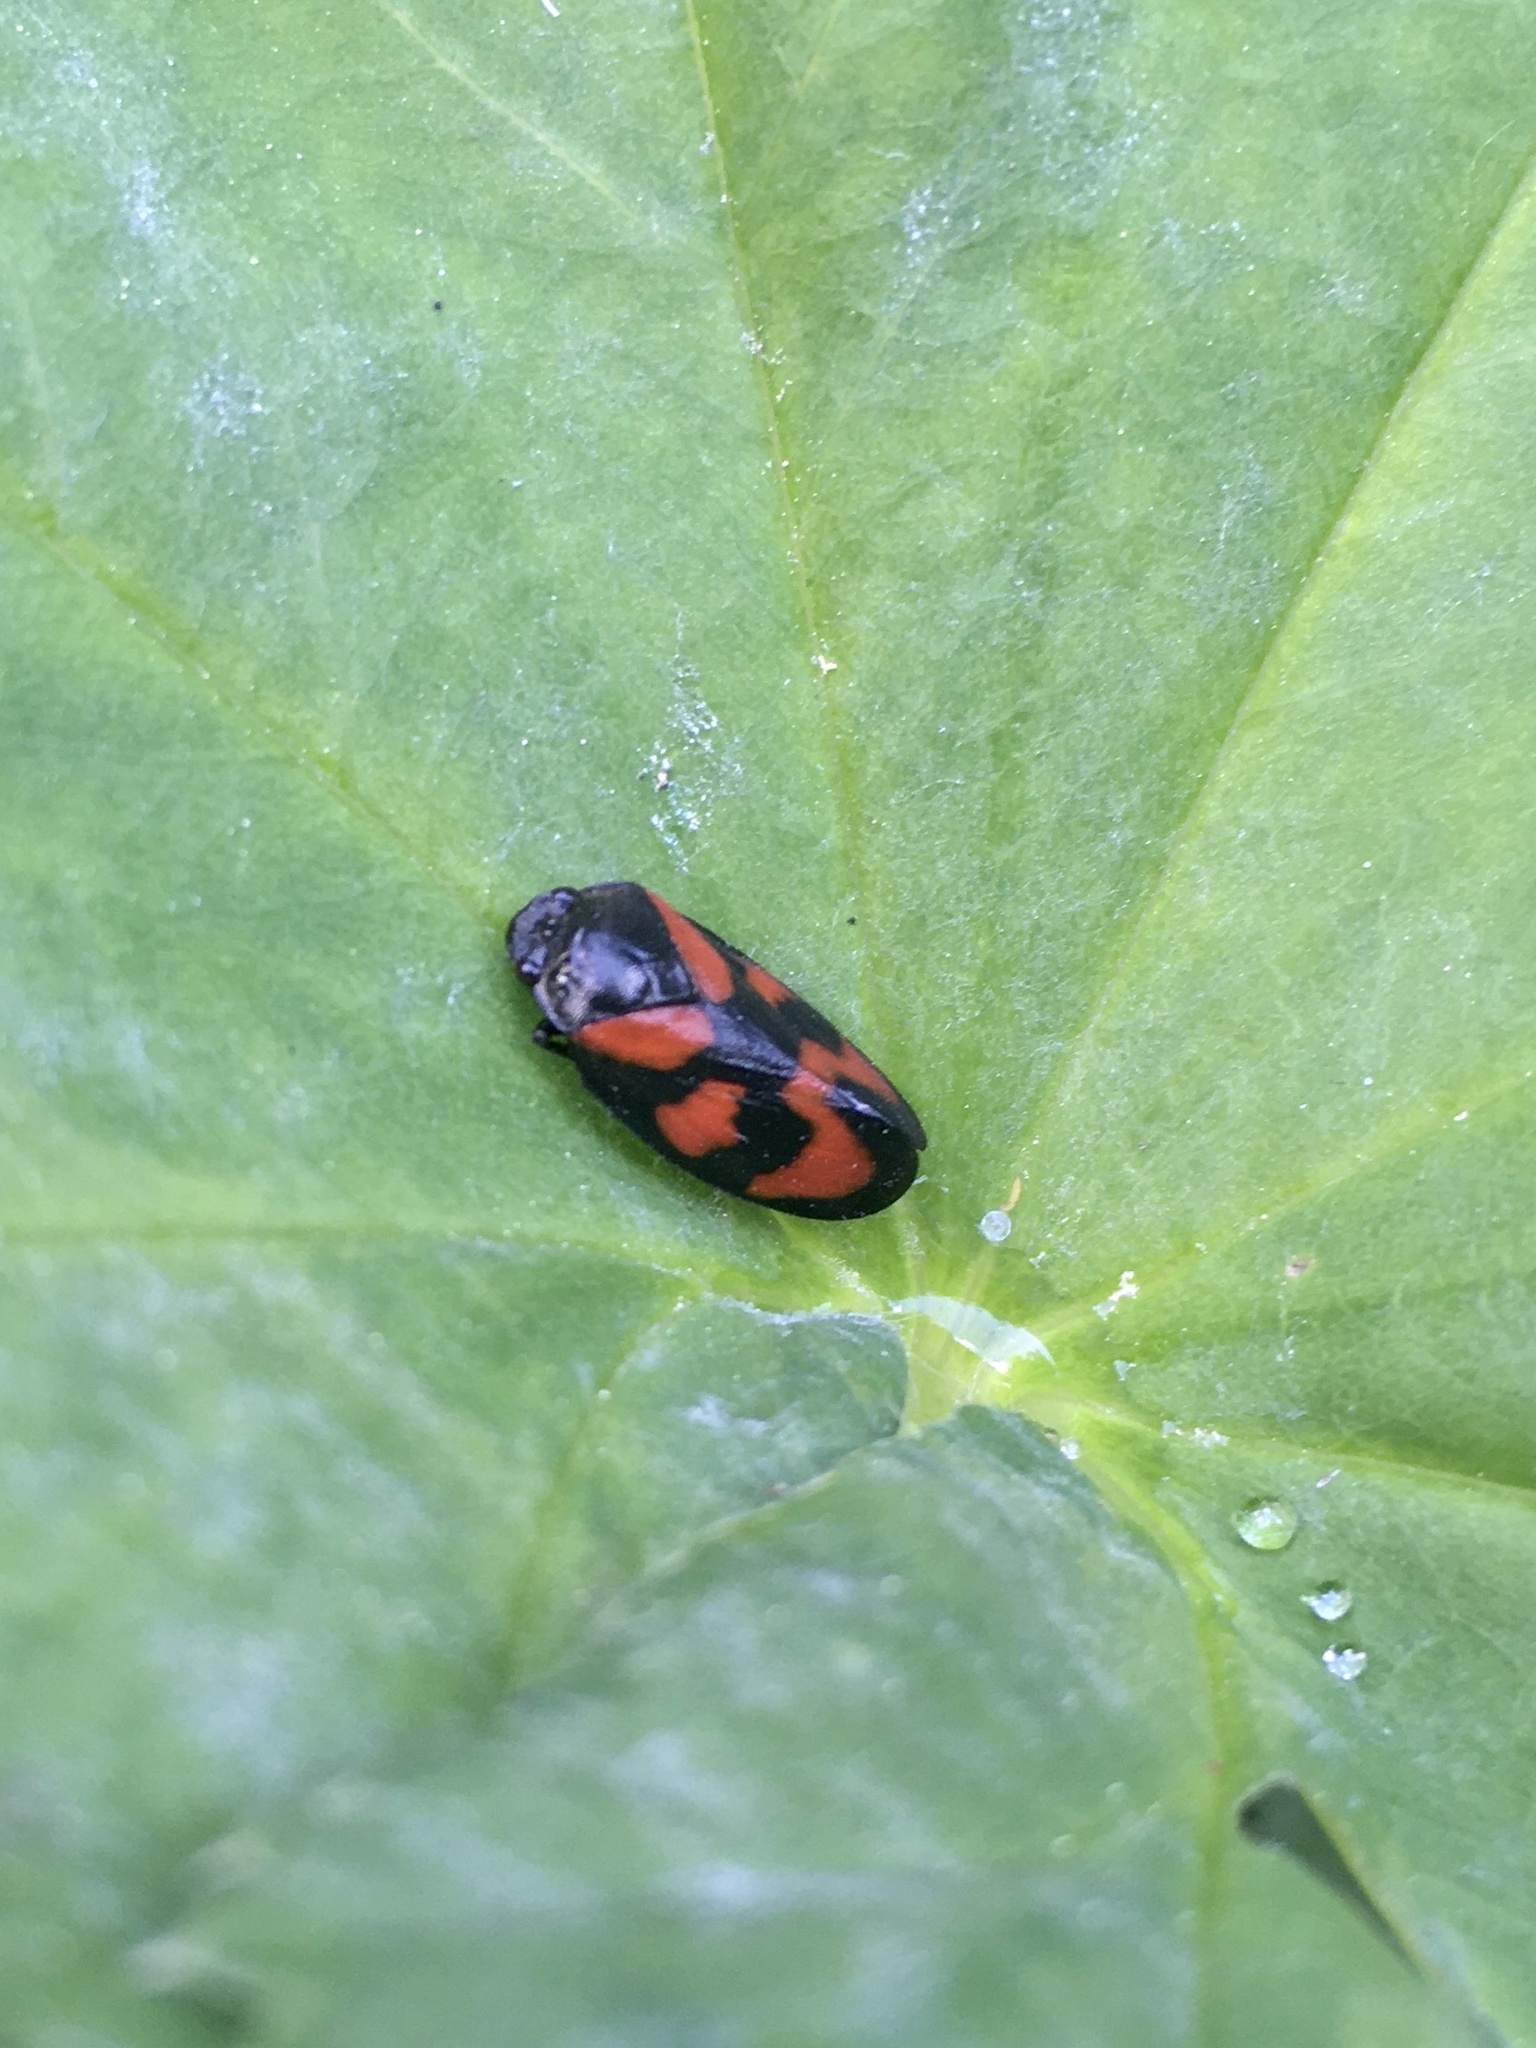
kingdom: Animalia
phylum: Arthropoda
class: Insecta
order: Hemiptera
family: Cercopidae
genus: Cercopis
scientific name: Cercopis vulnerata
